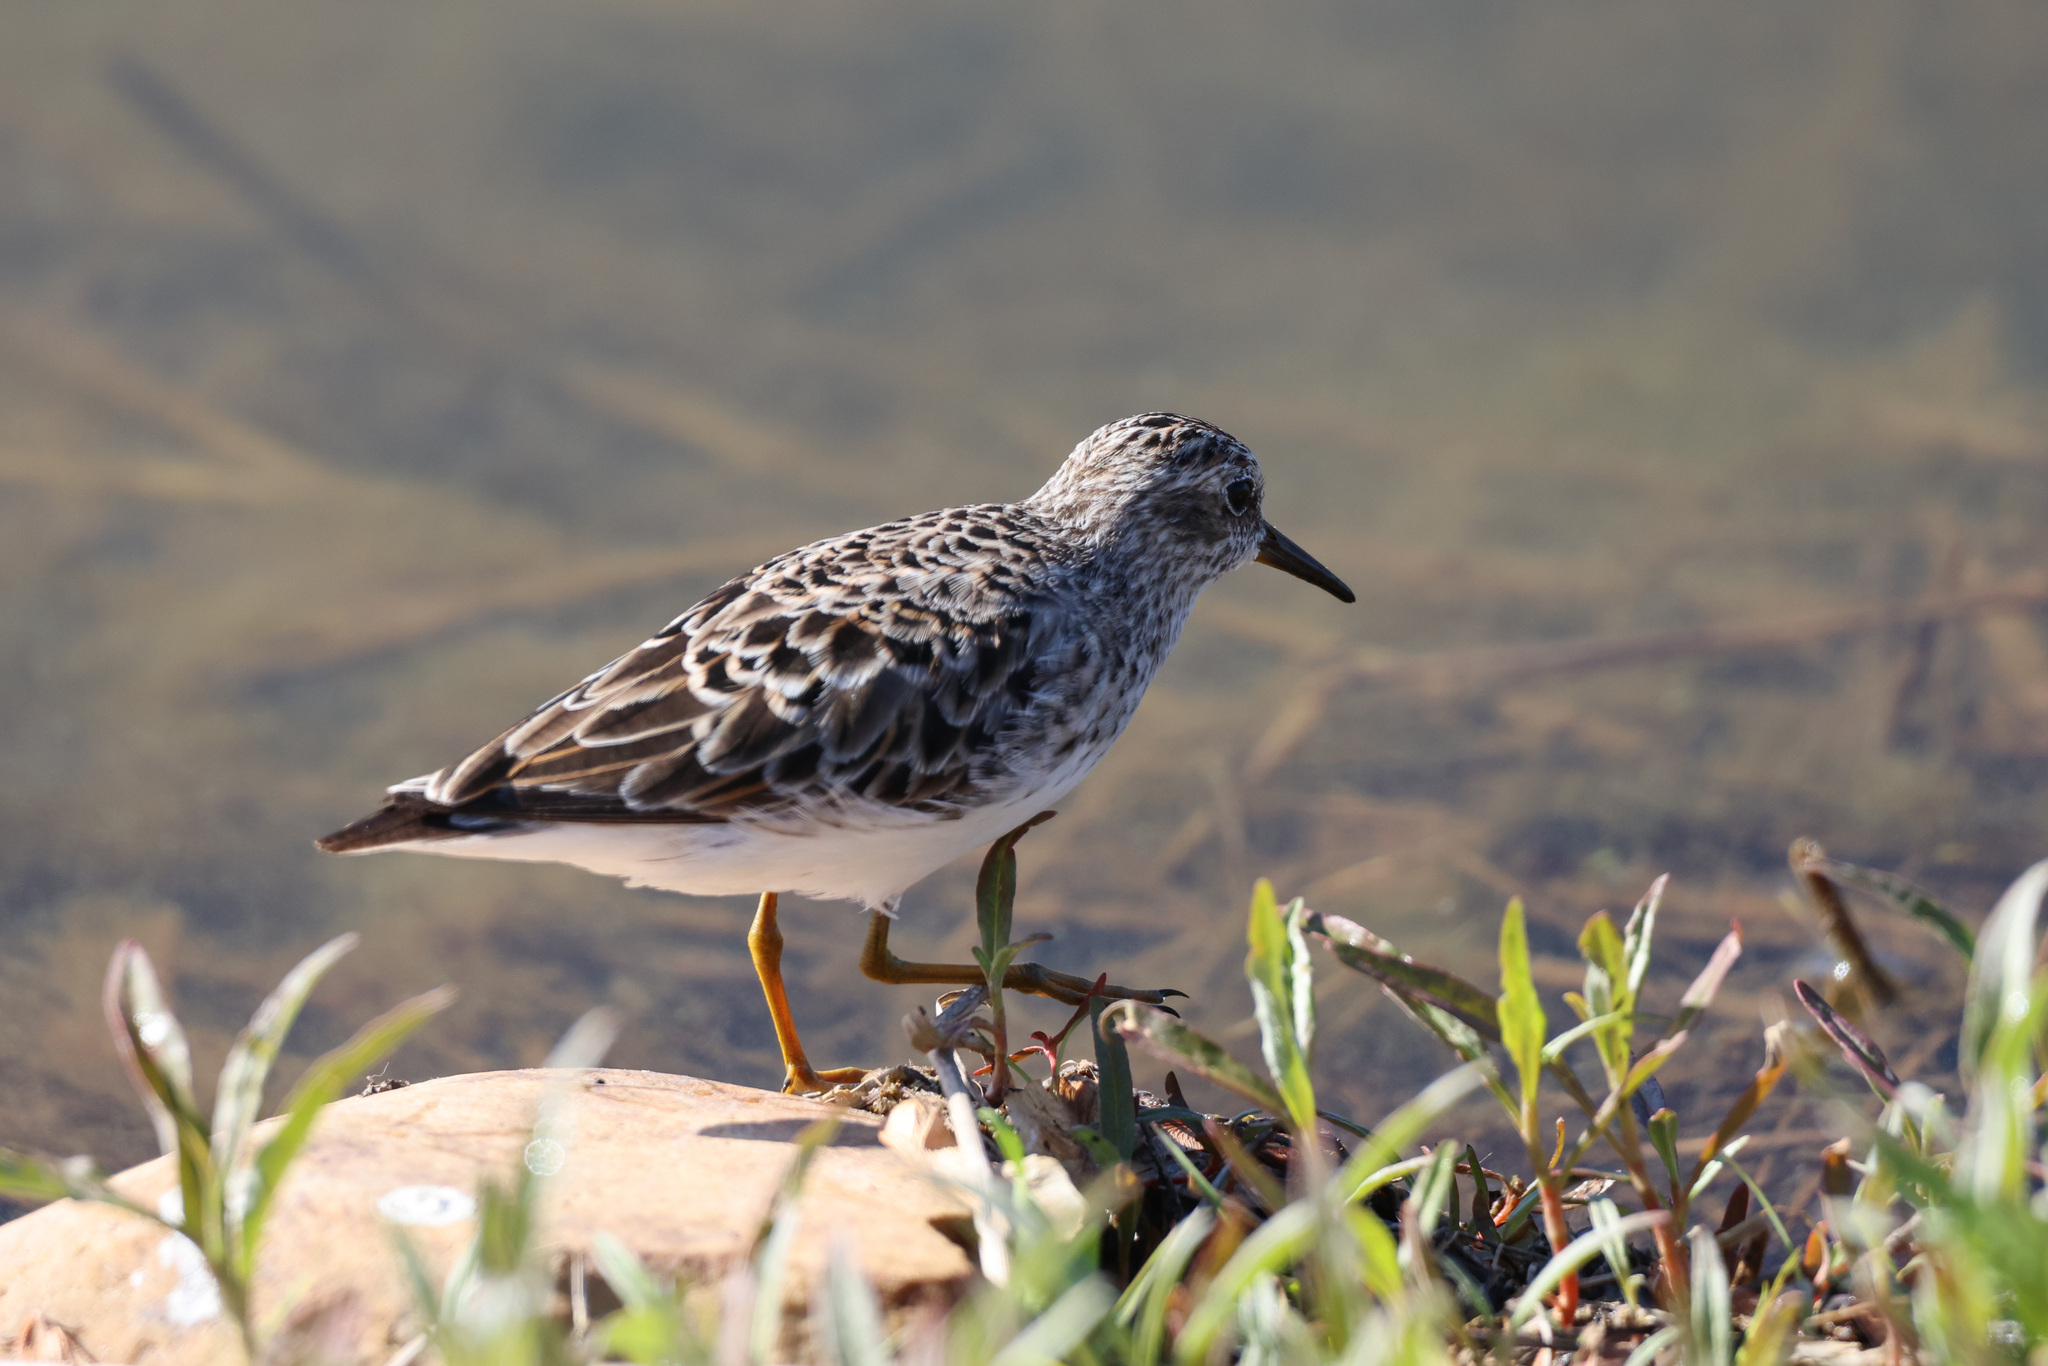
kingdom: Animalia
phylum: Chordata
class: Aves
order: Charadriiformes
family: Scolopacidae
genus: Calidris
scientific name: Calidris minutilla
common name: Least sandpiper
